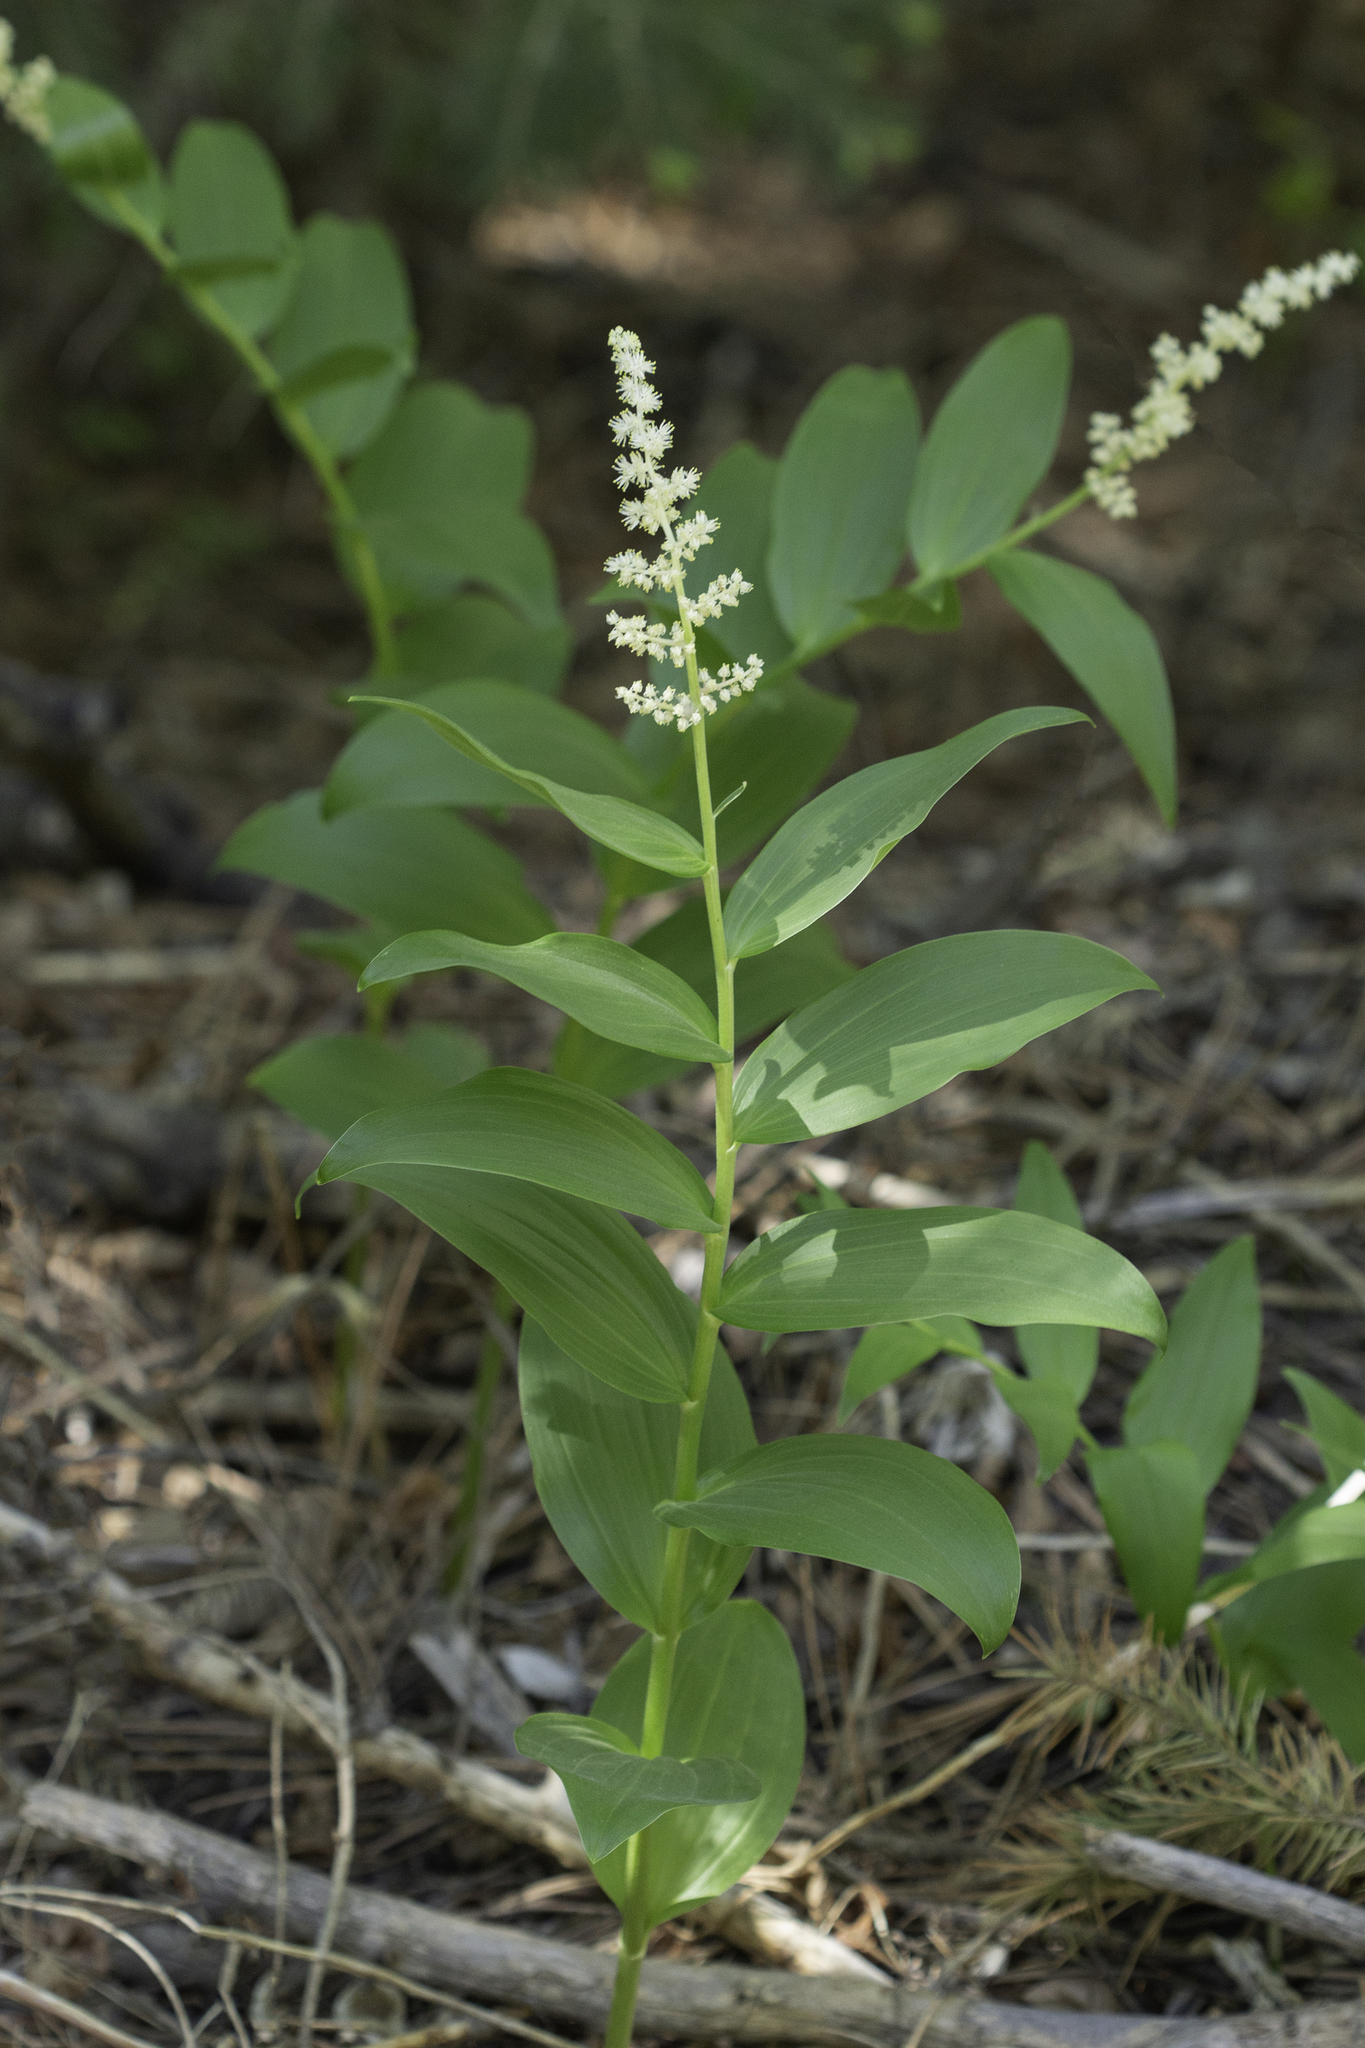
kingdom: Plantae
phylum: Tracheophyta
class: Liliopsida
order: Asparagales
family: Asparagaceae
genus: Maianthemum
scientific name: Maianthemum racemosum
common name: False spikenard
